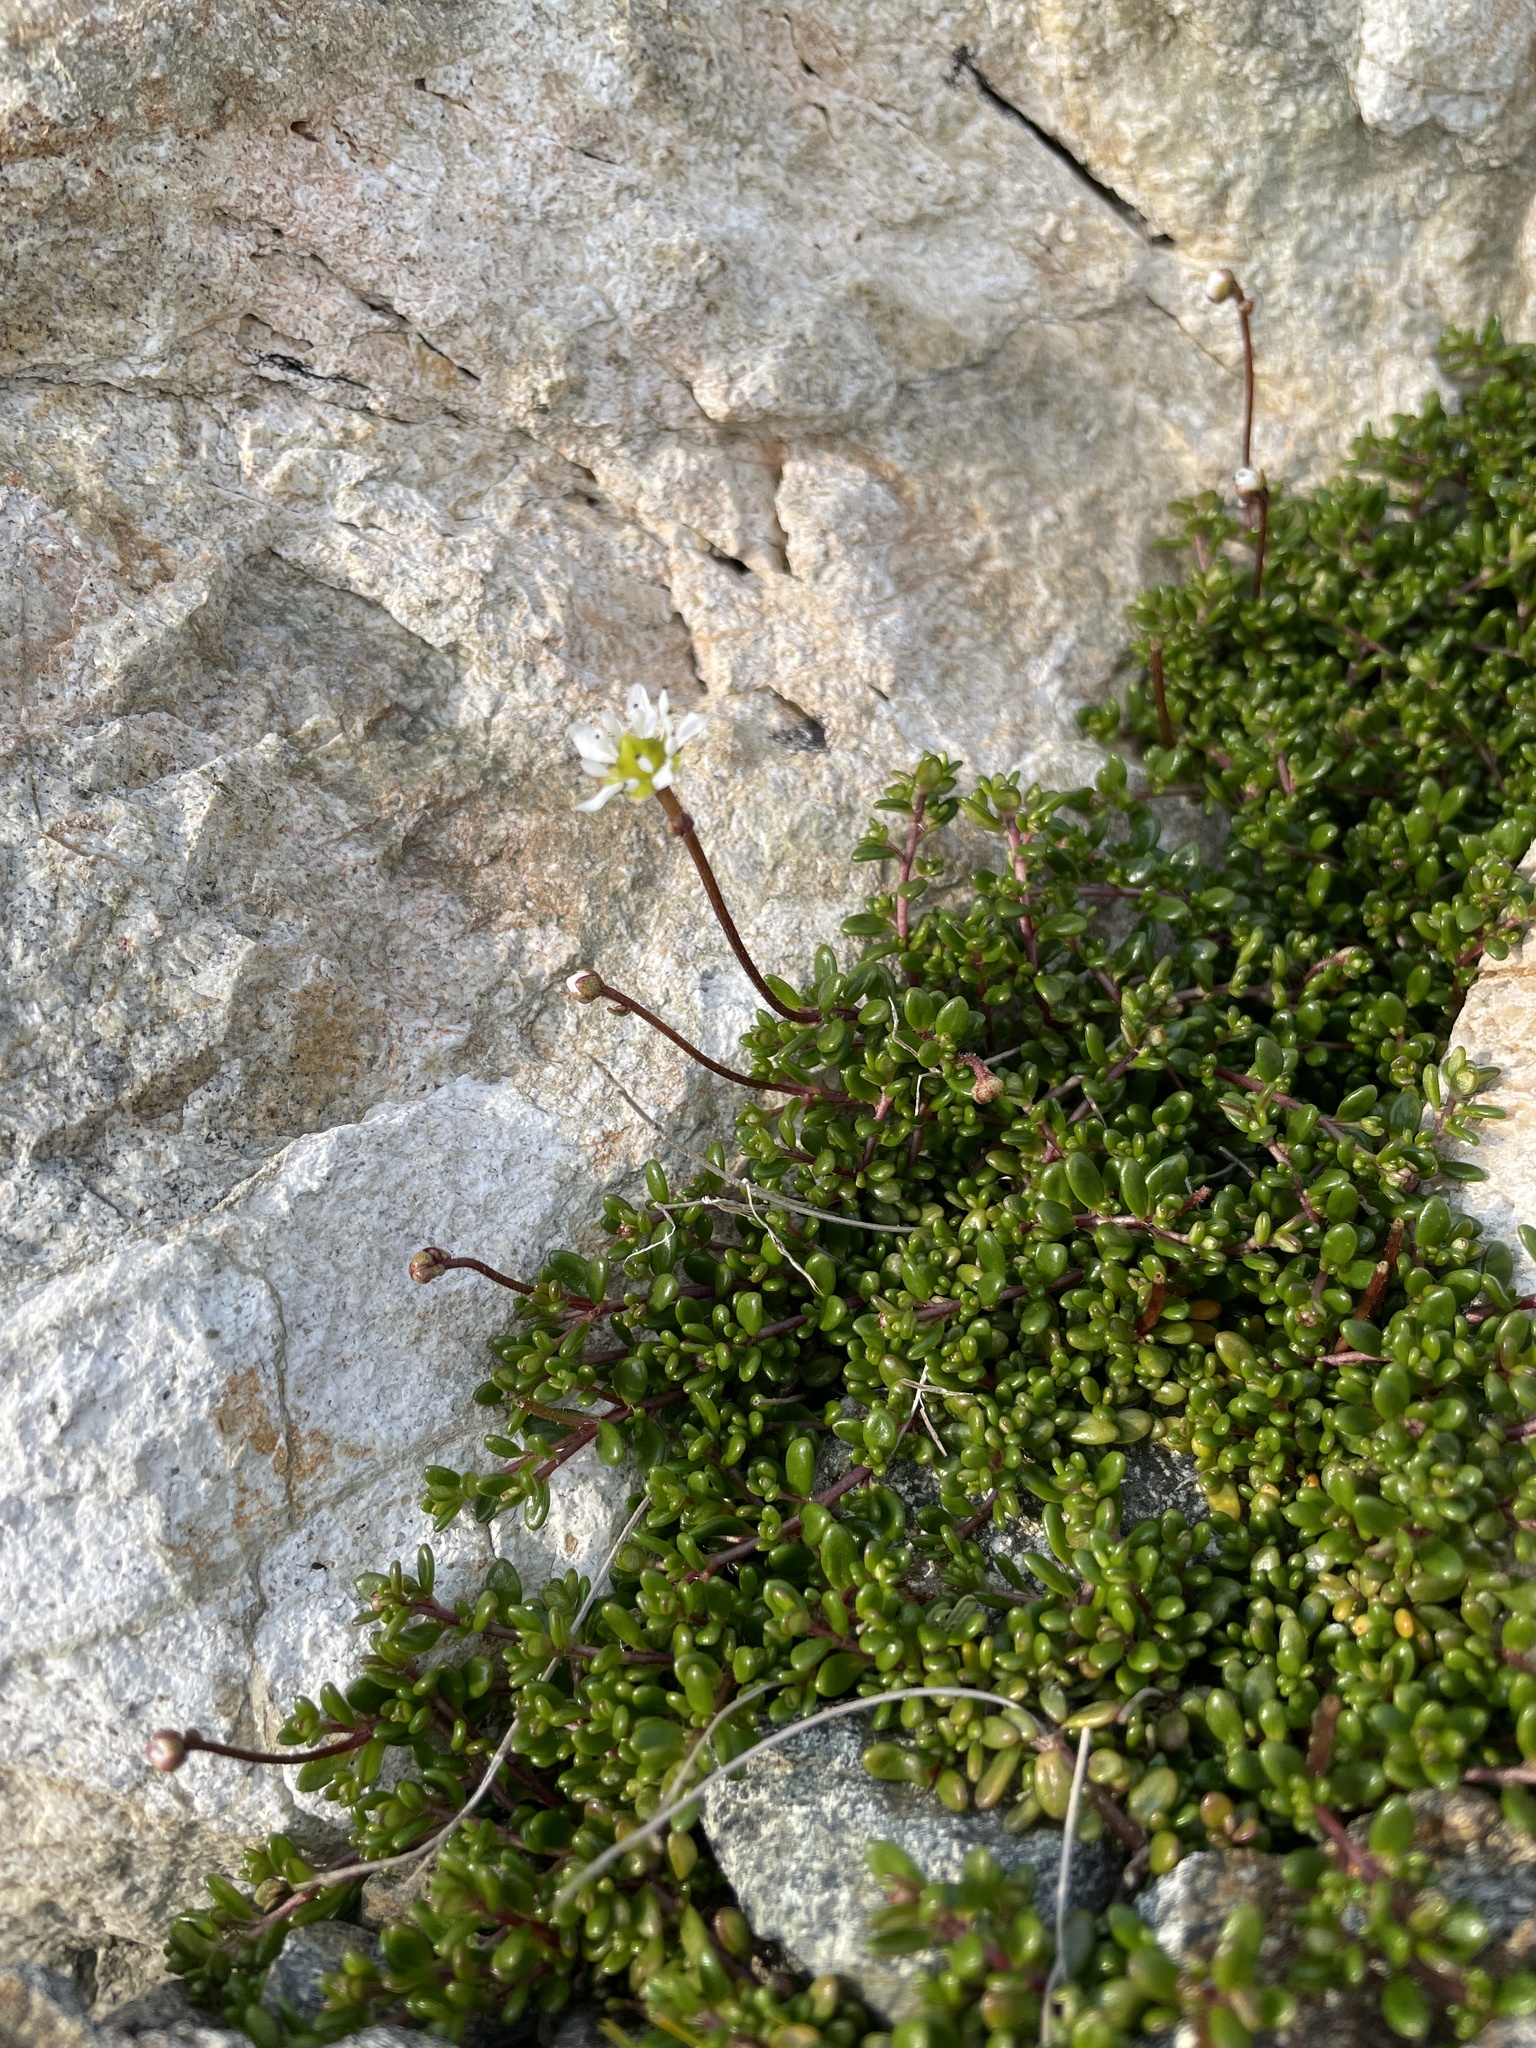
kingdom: Plantae
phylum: Tracheophyta
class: Magnoliopsida
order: Saxifragales
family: Saxifragaceae
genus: Micranthes
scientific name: Micranthes tolmiei
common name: Tolmie's saxifrage
